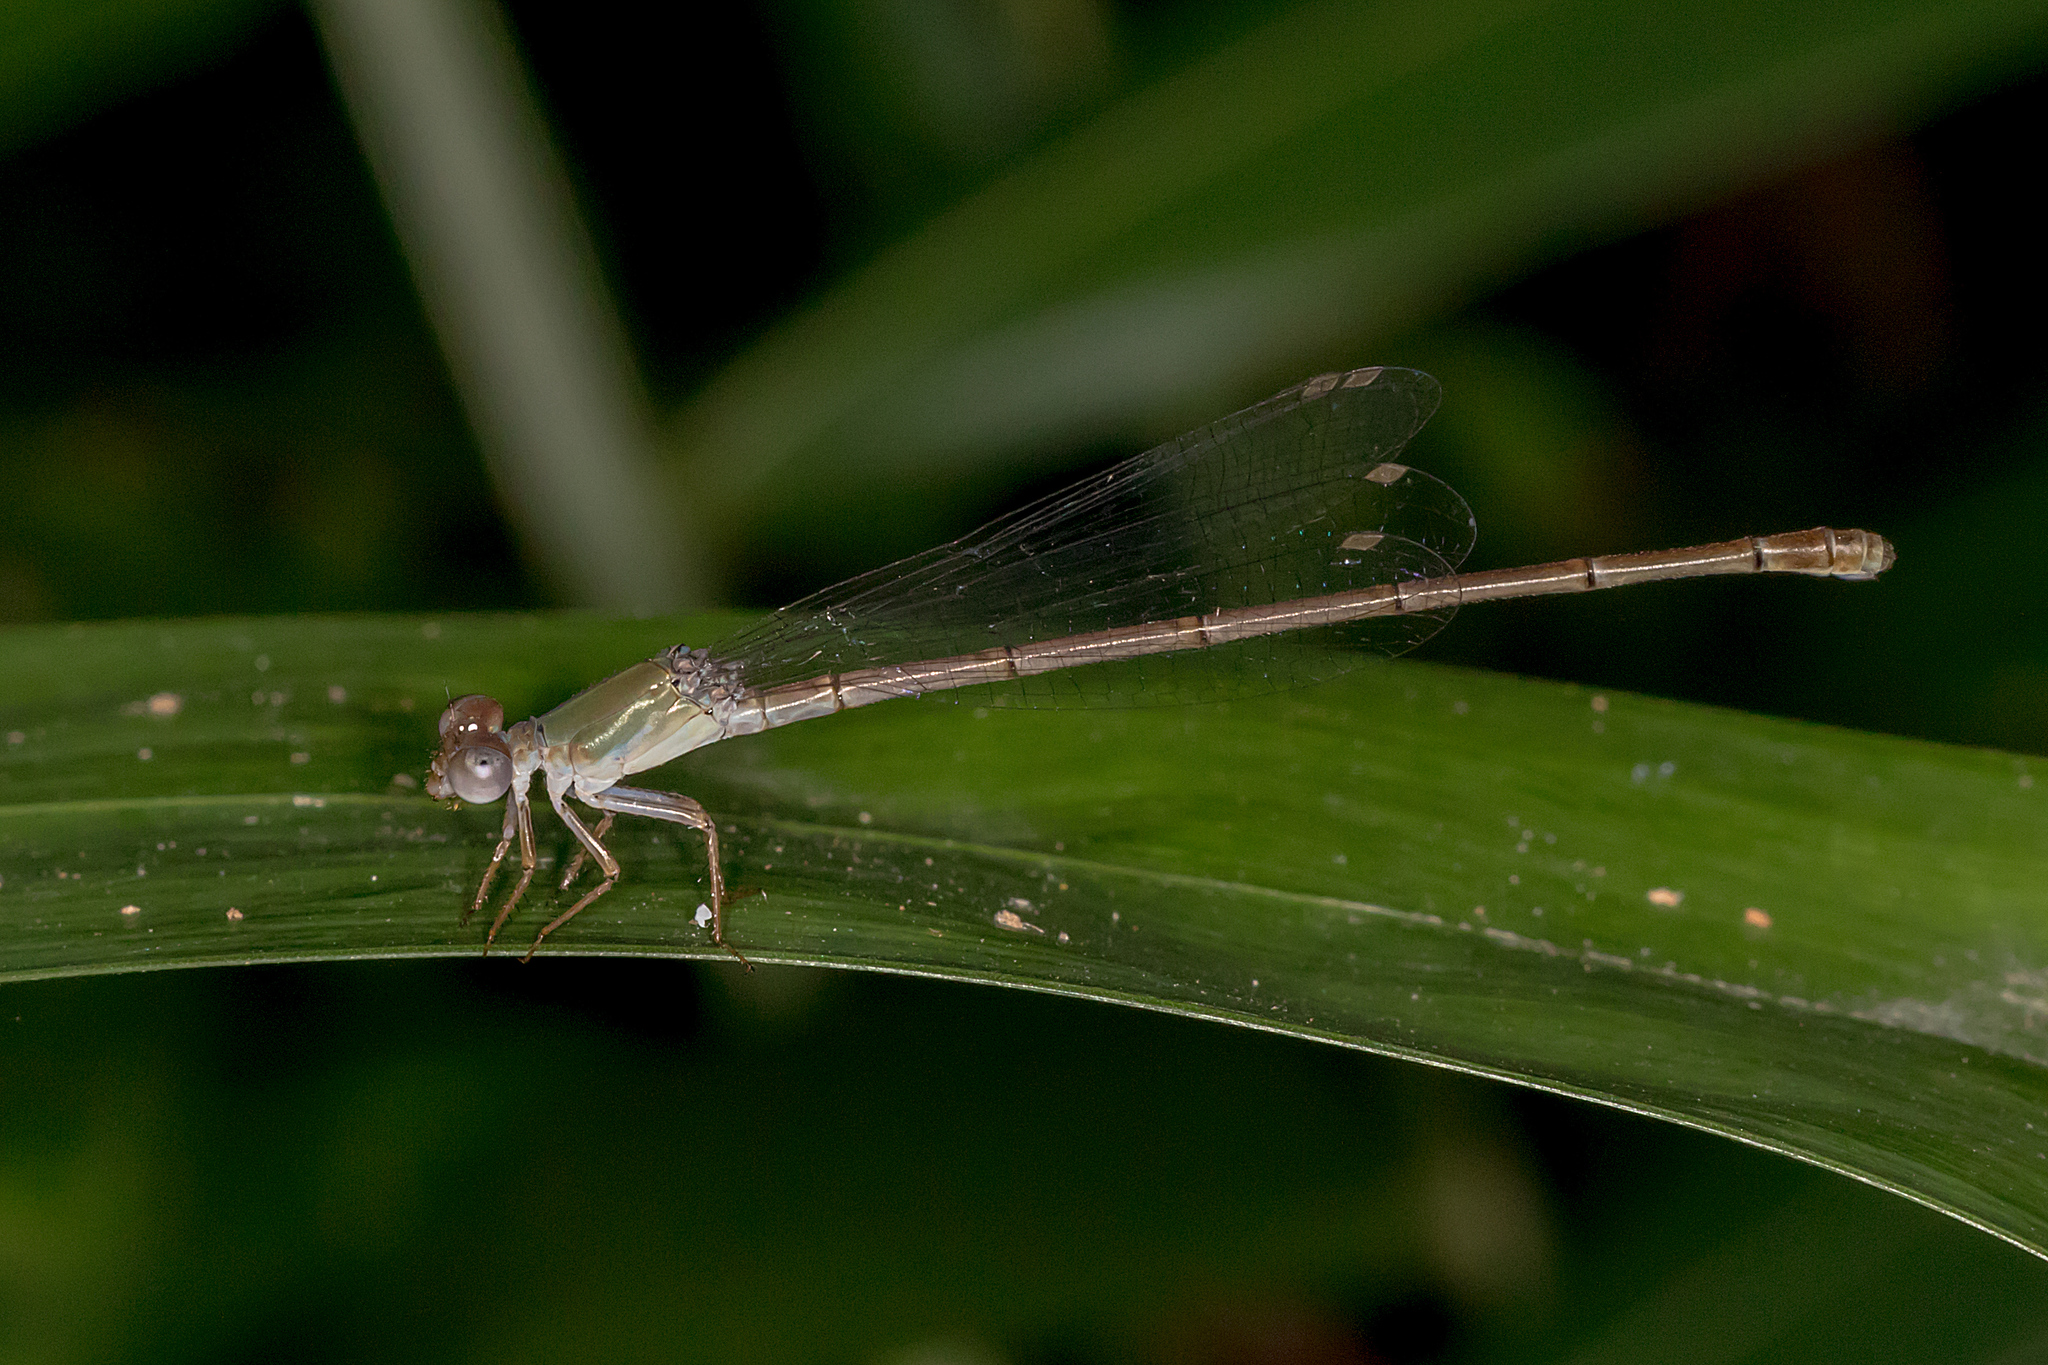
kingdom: Animalia
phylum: Arthropoda
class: Insecta
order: Odonata
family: Coenagrionidae
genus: Ceriagrion
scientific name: Ceriagrion aeruginosum
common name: Redtail
